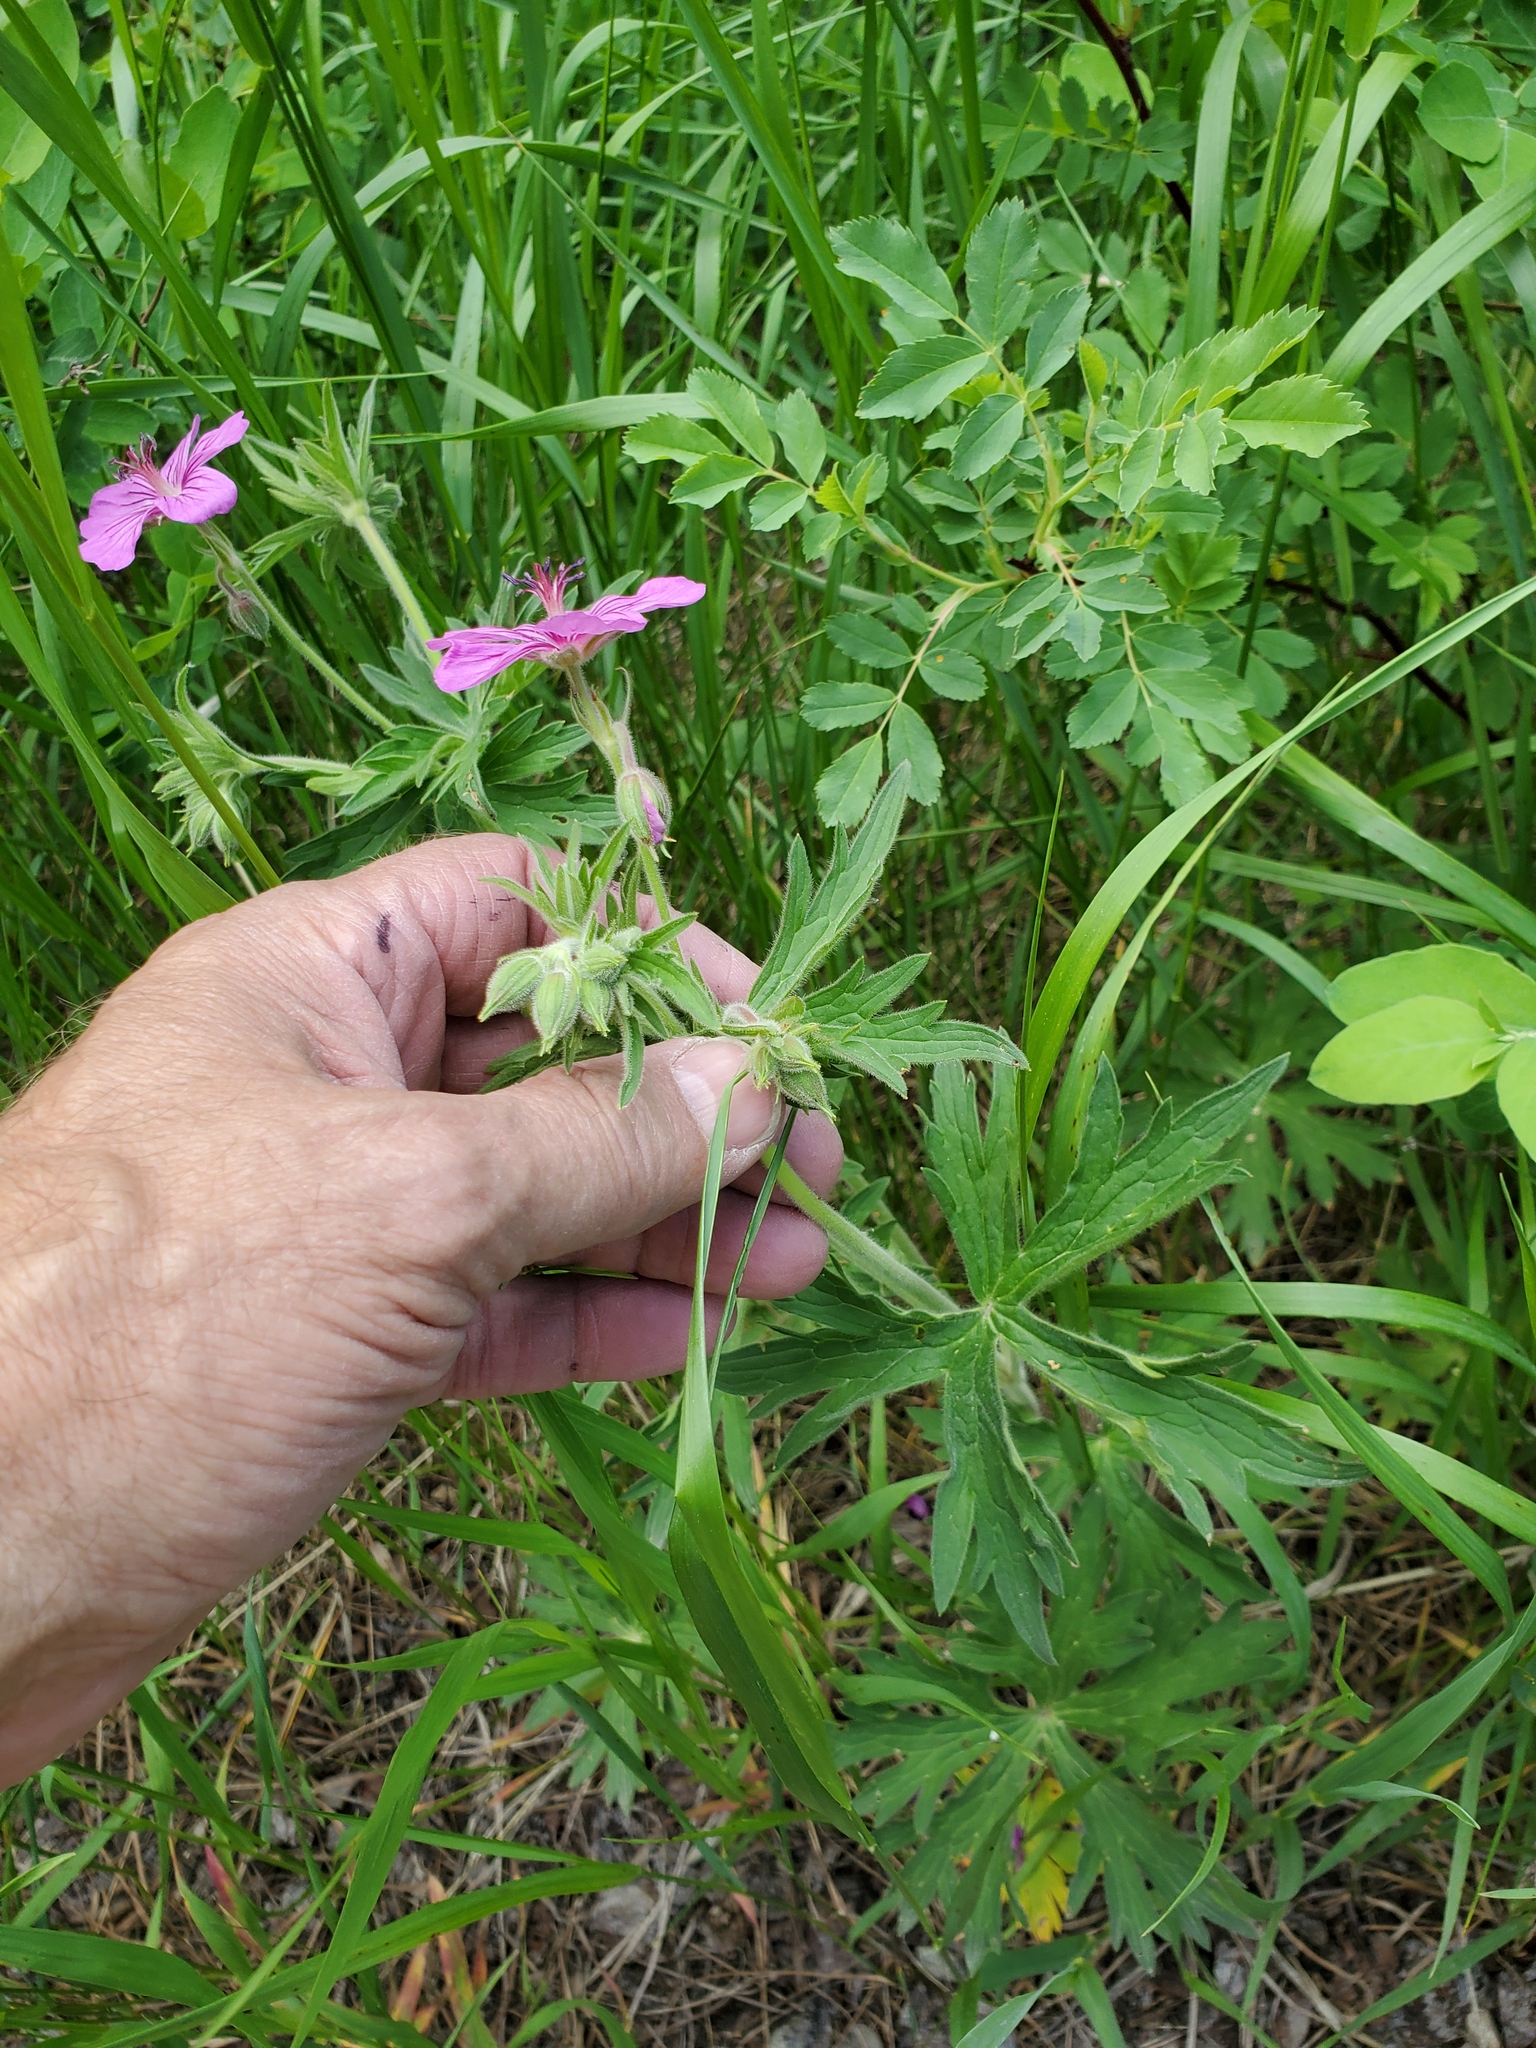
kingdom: Plantae
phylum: Tracheophyta
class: Magnoliopsida
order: Geraniales
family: Geraniaceae
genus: Geranium
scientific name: Geranium viscosissimum
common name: Purple geranium
